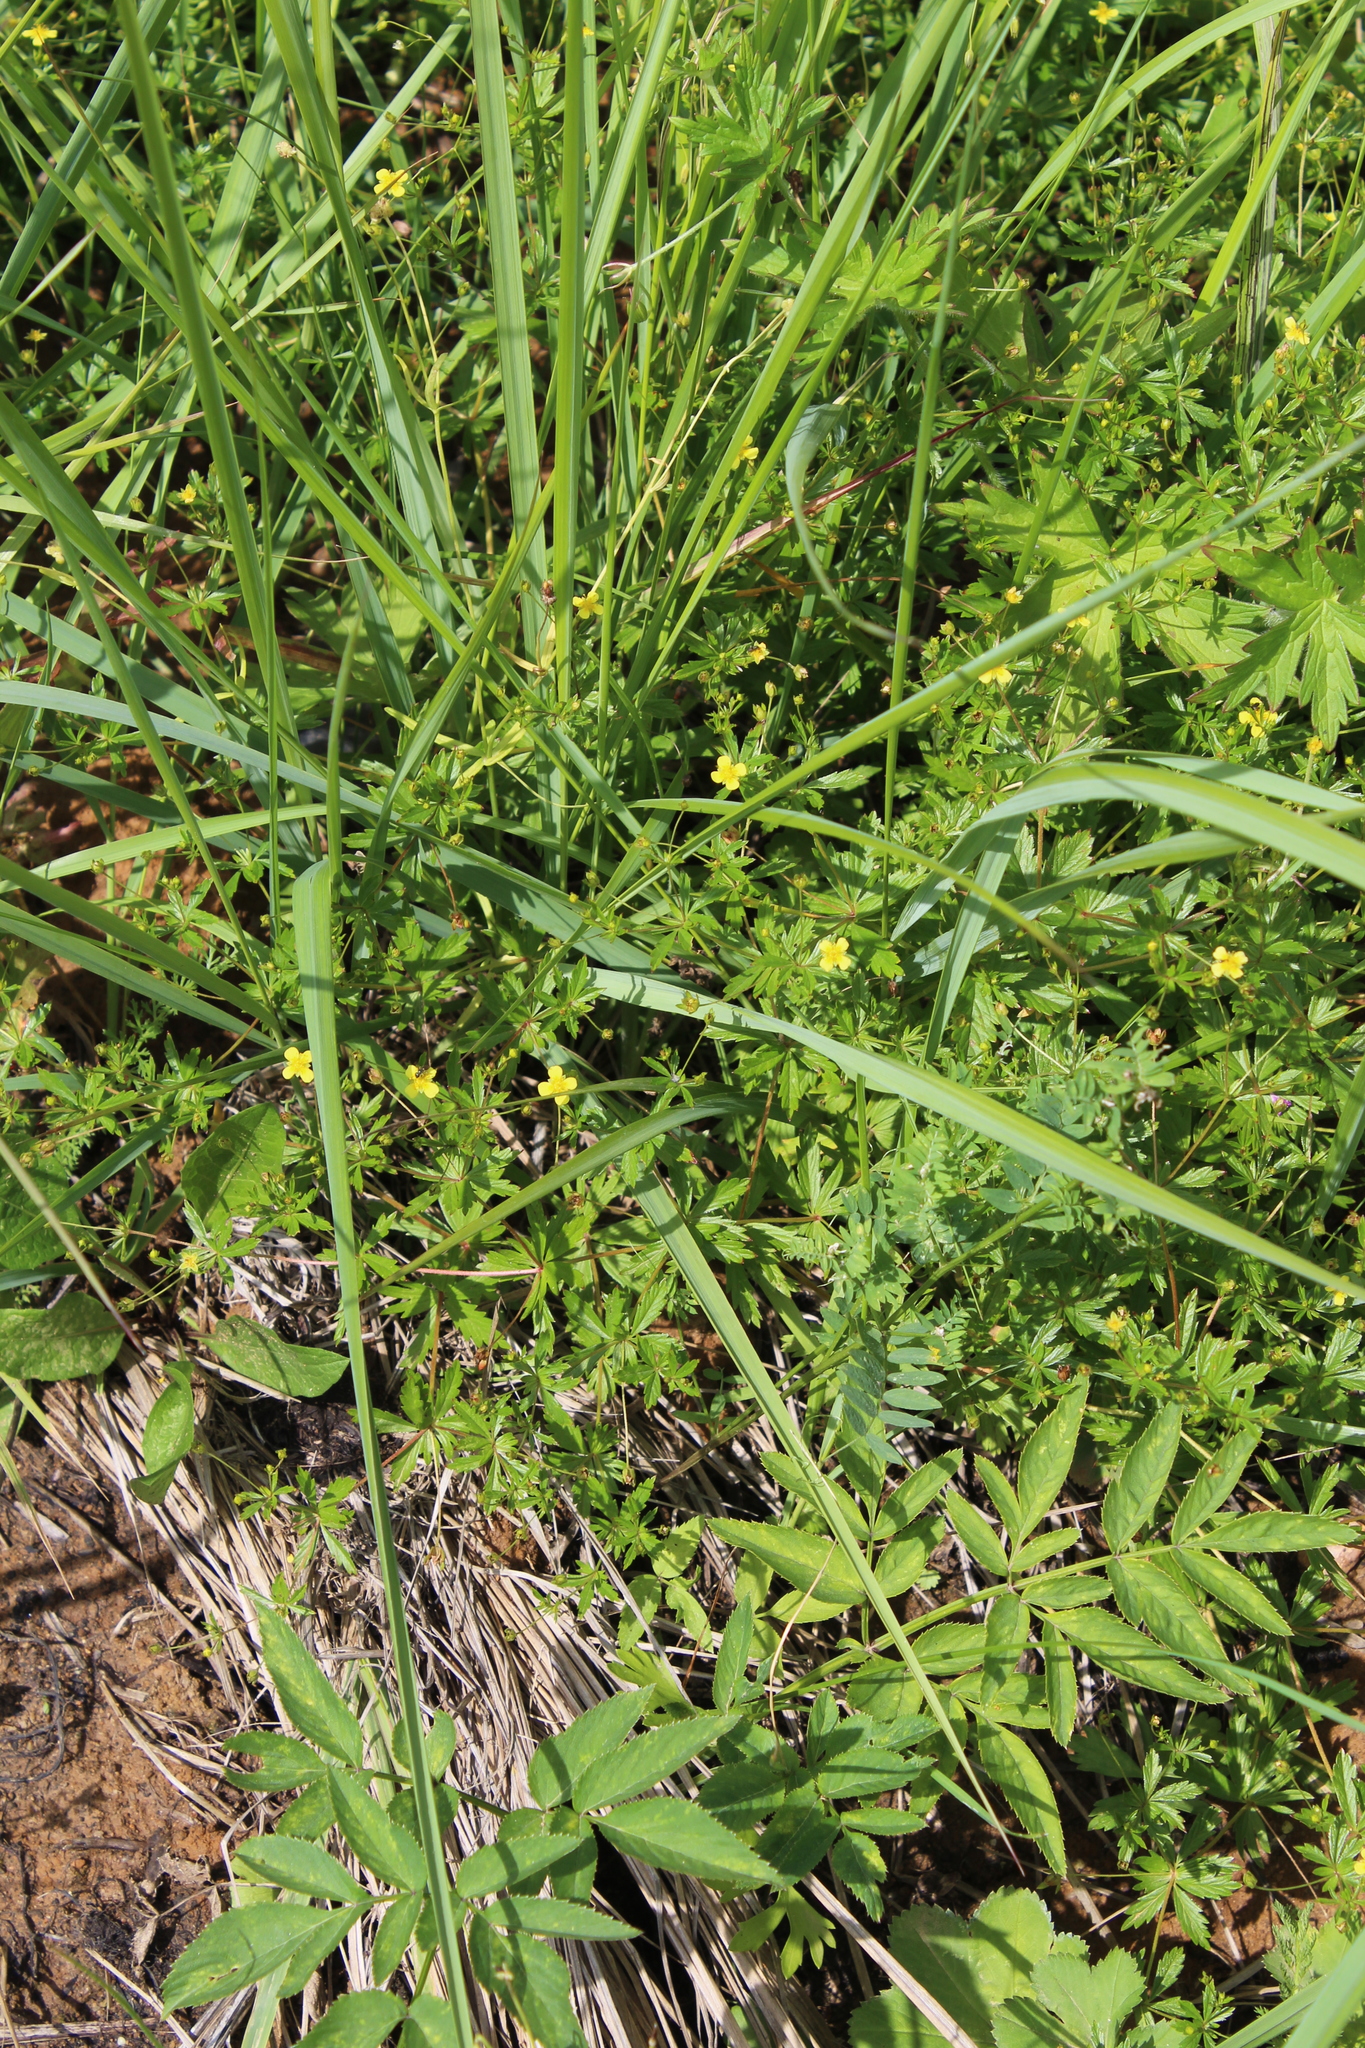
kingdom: Plantae
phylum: Tracheophyta
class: Magnoliopsida
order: Rosales
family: Rosaceae
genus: Potentilla
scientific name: Potentilla erecta
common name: Tormentil
